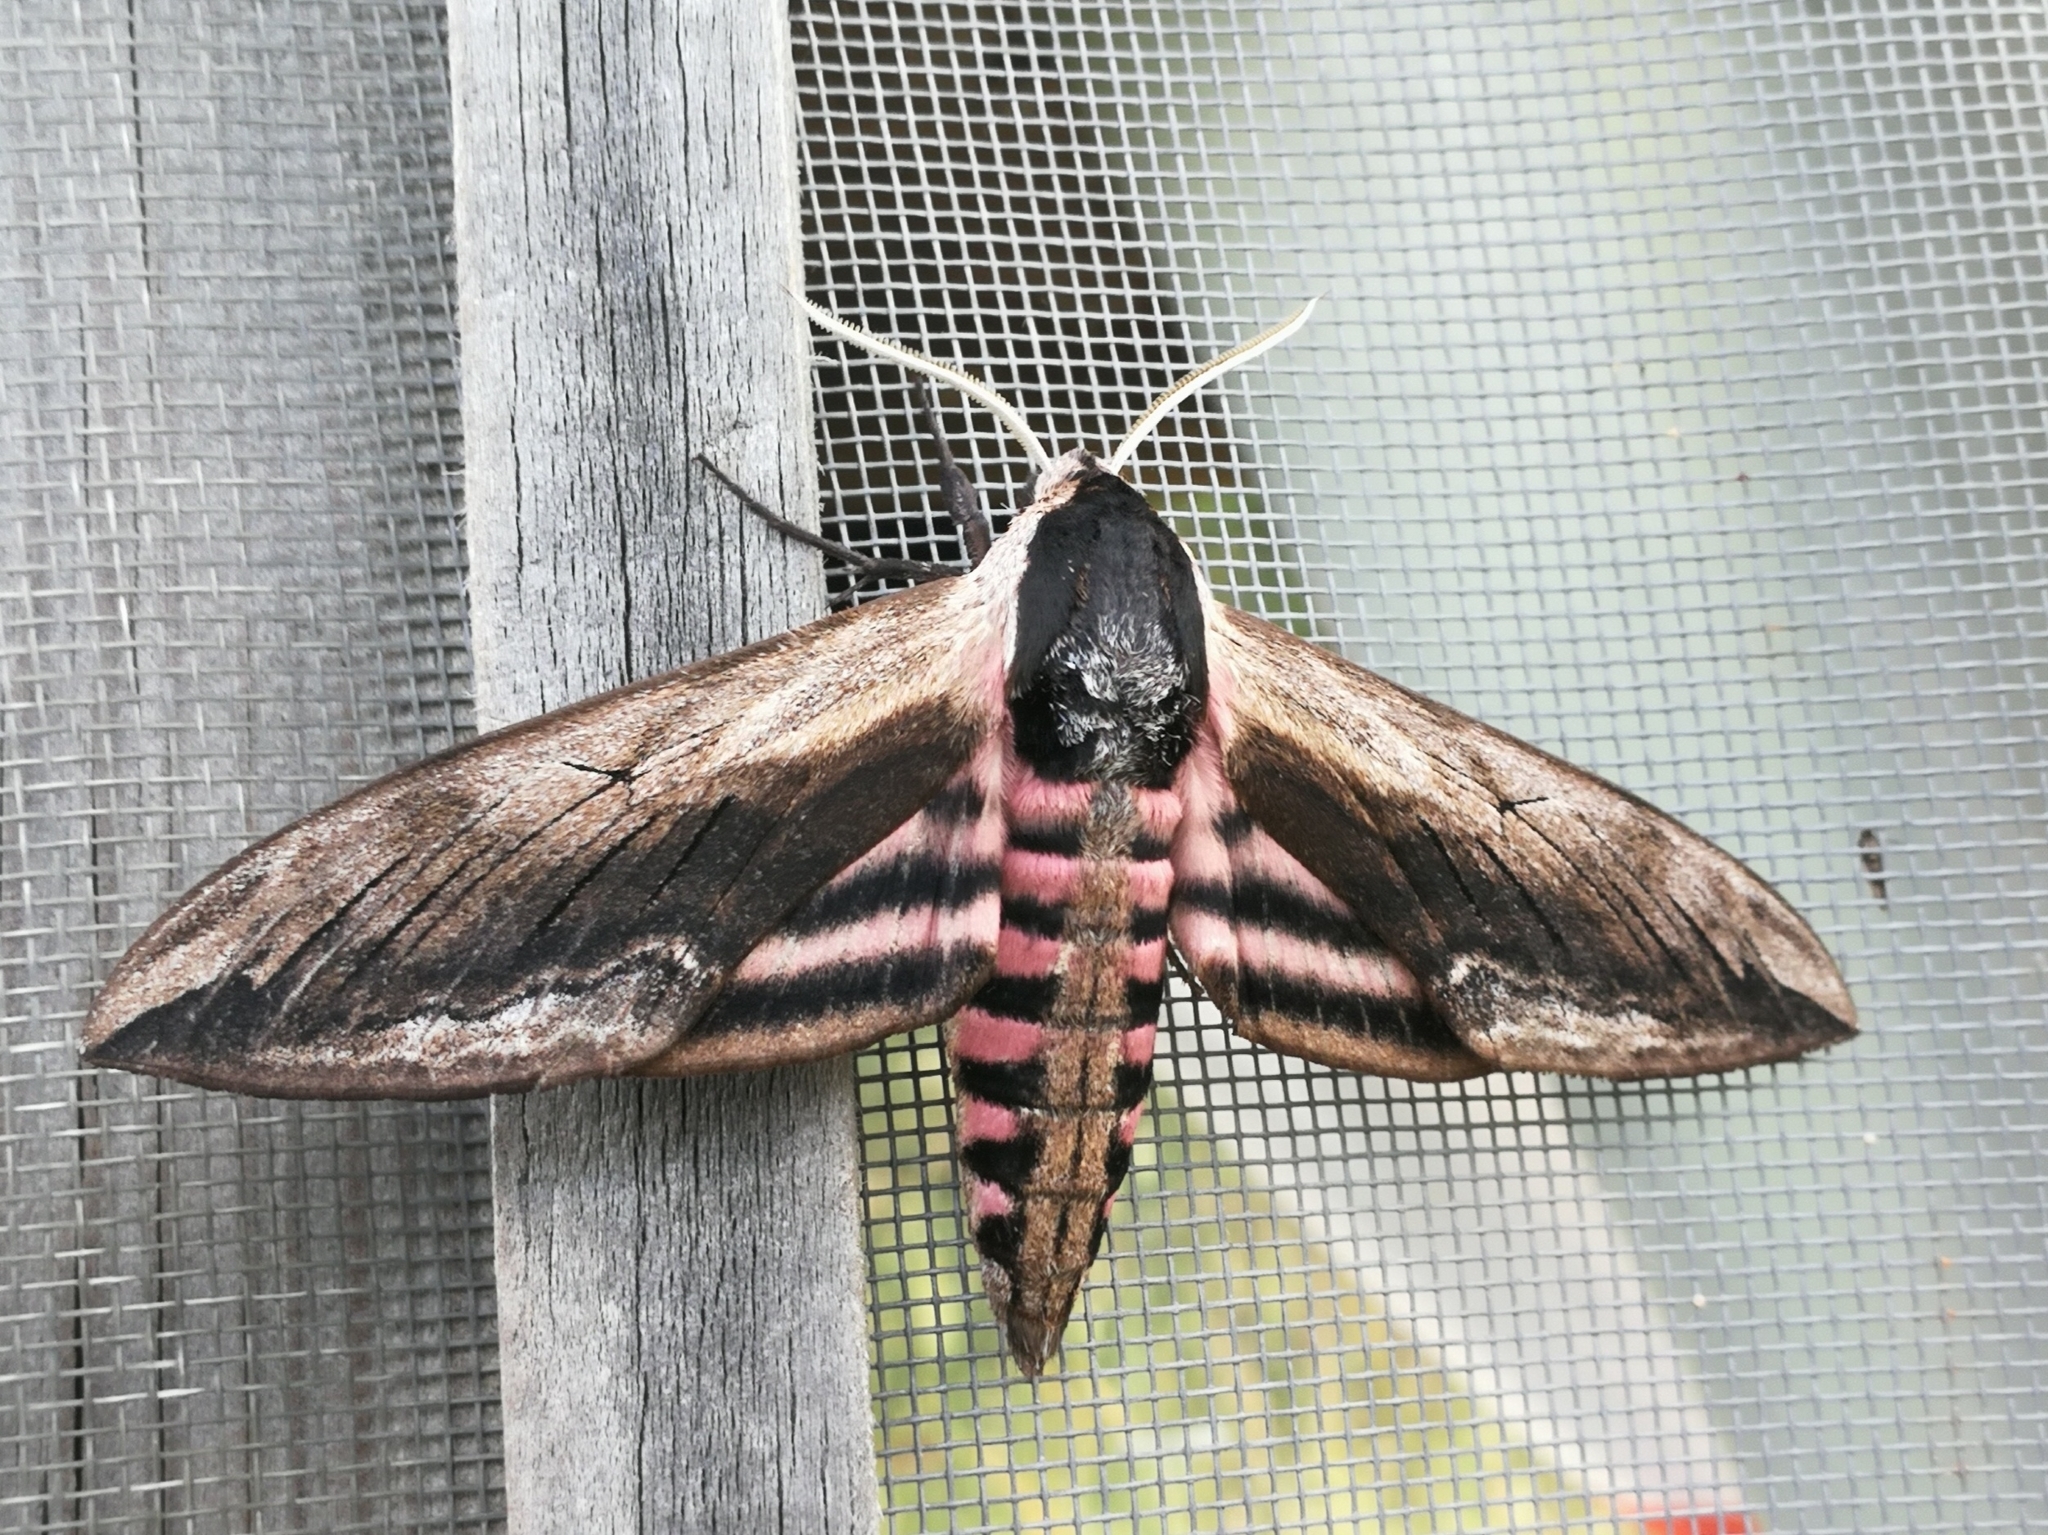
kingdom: Animalia
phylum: Arthropoda
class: Insecta
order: Lepidoptera
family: Sphingidae
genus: Sphinx
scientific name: Sphinx ligustri
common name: Privet hawk-moth
